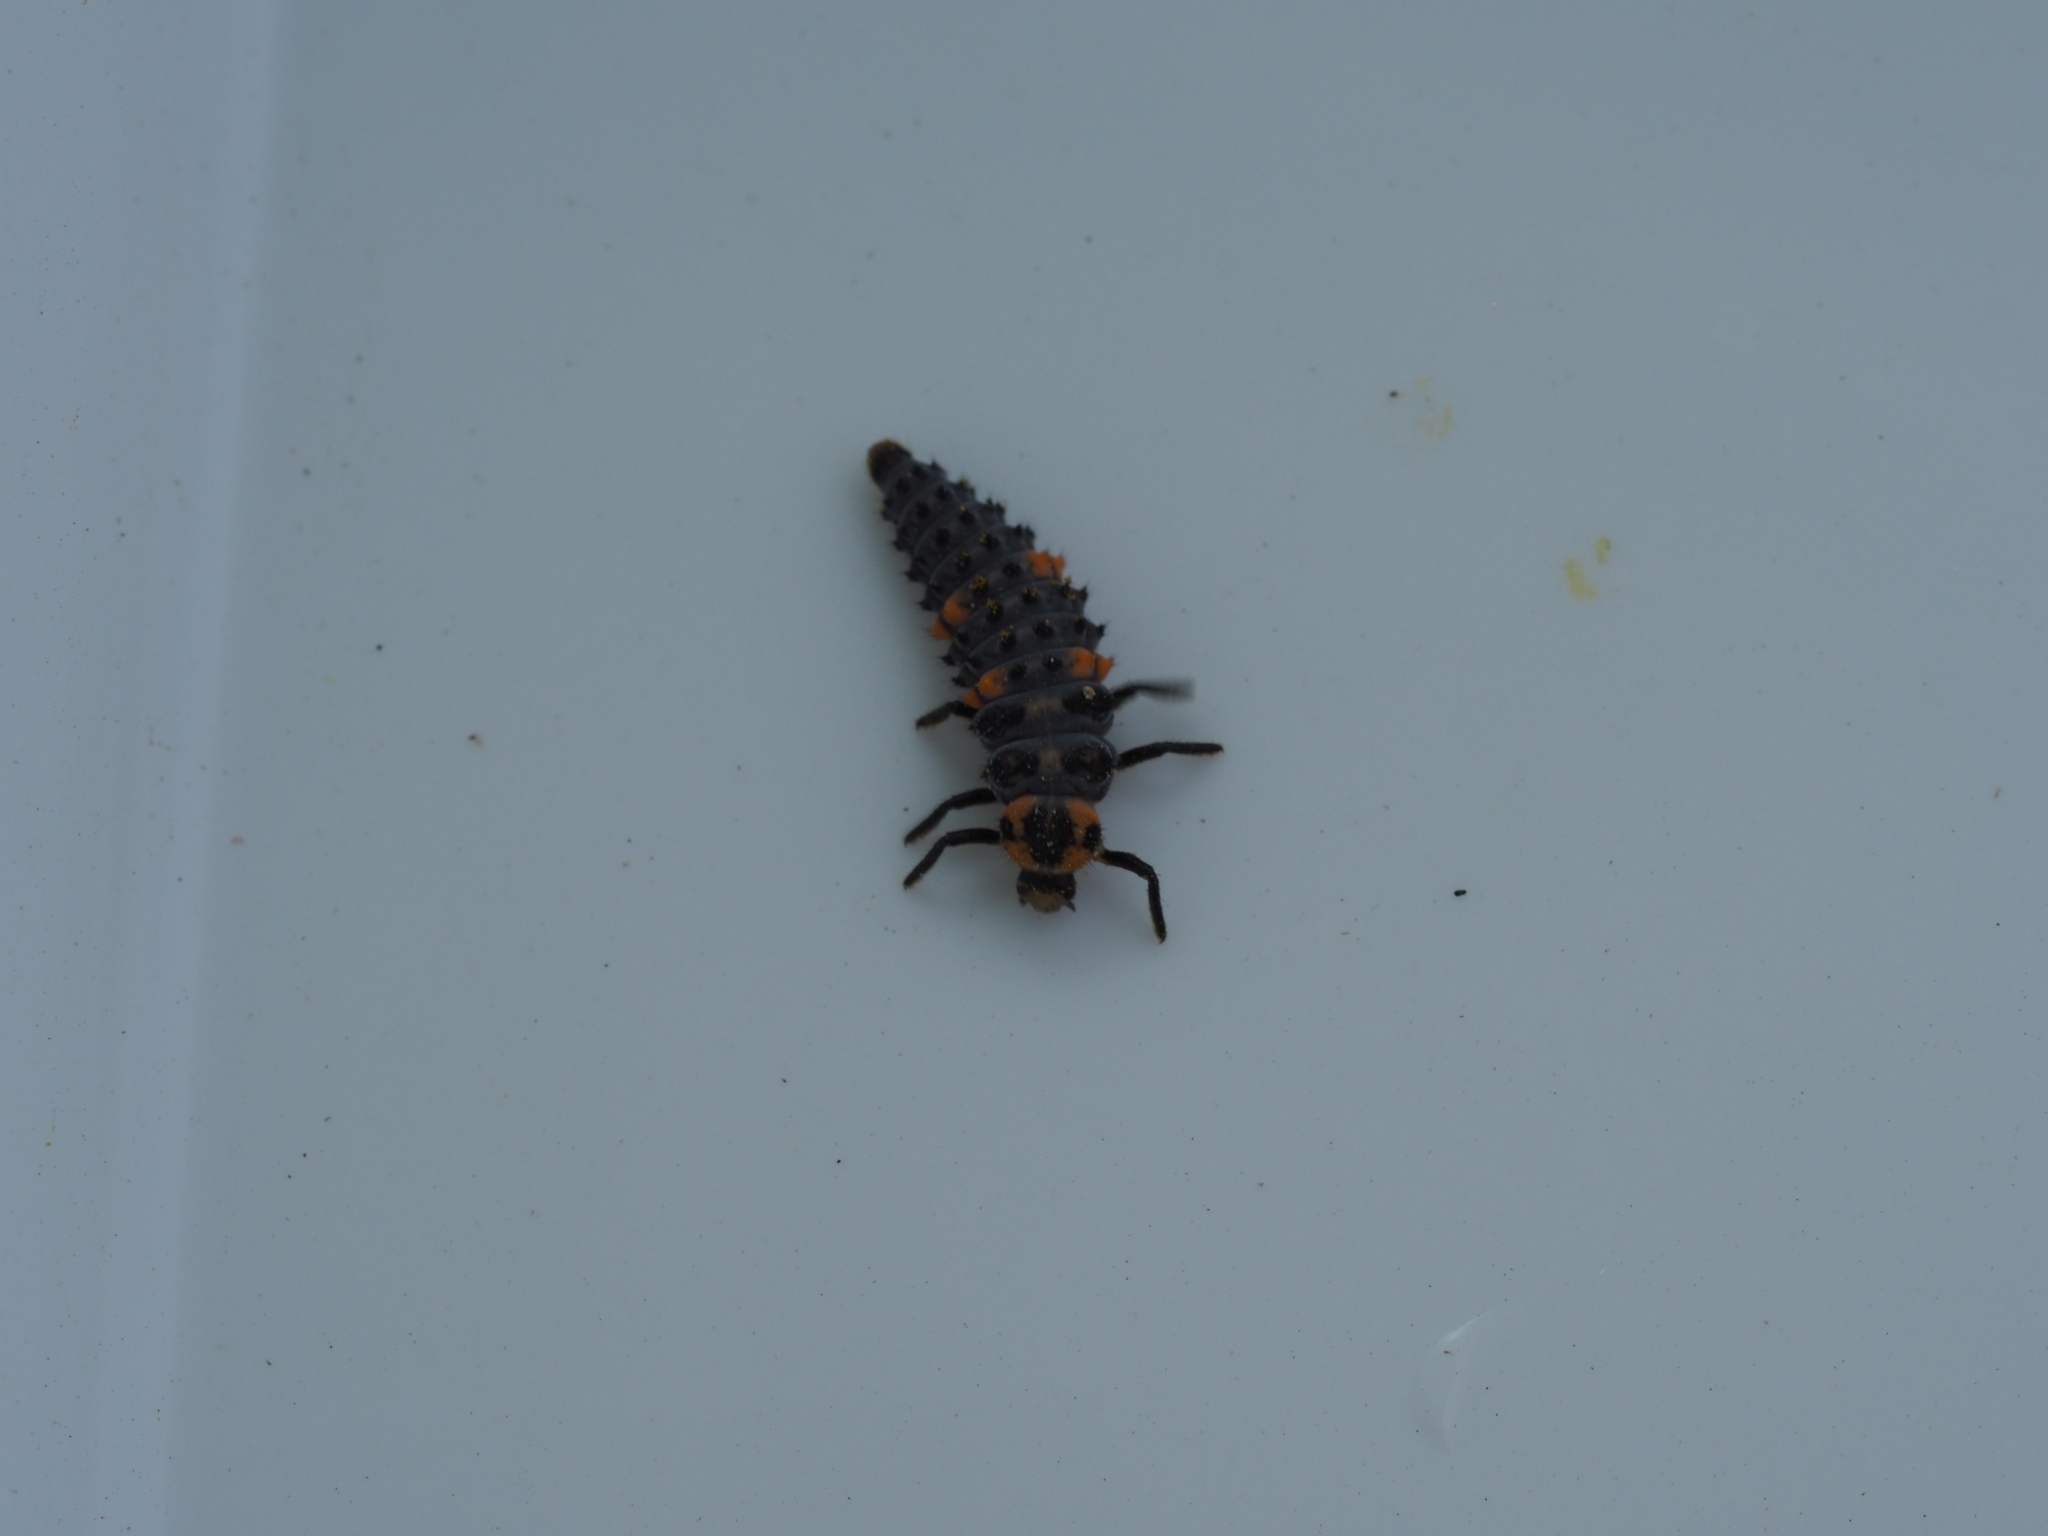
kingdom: Animalia
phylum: Arthropoda
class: Insecta
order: Coleoptera
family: Coccinellidae
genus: Coccinella
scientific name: Coccinella septempunctata
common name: Sevenspotted lady beetle
